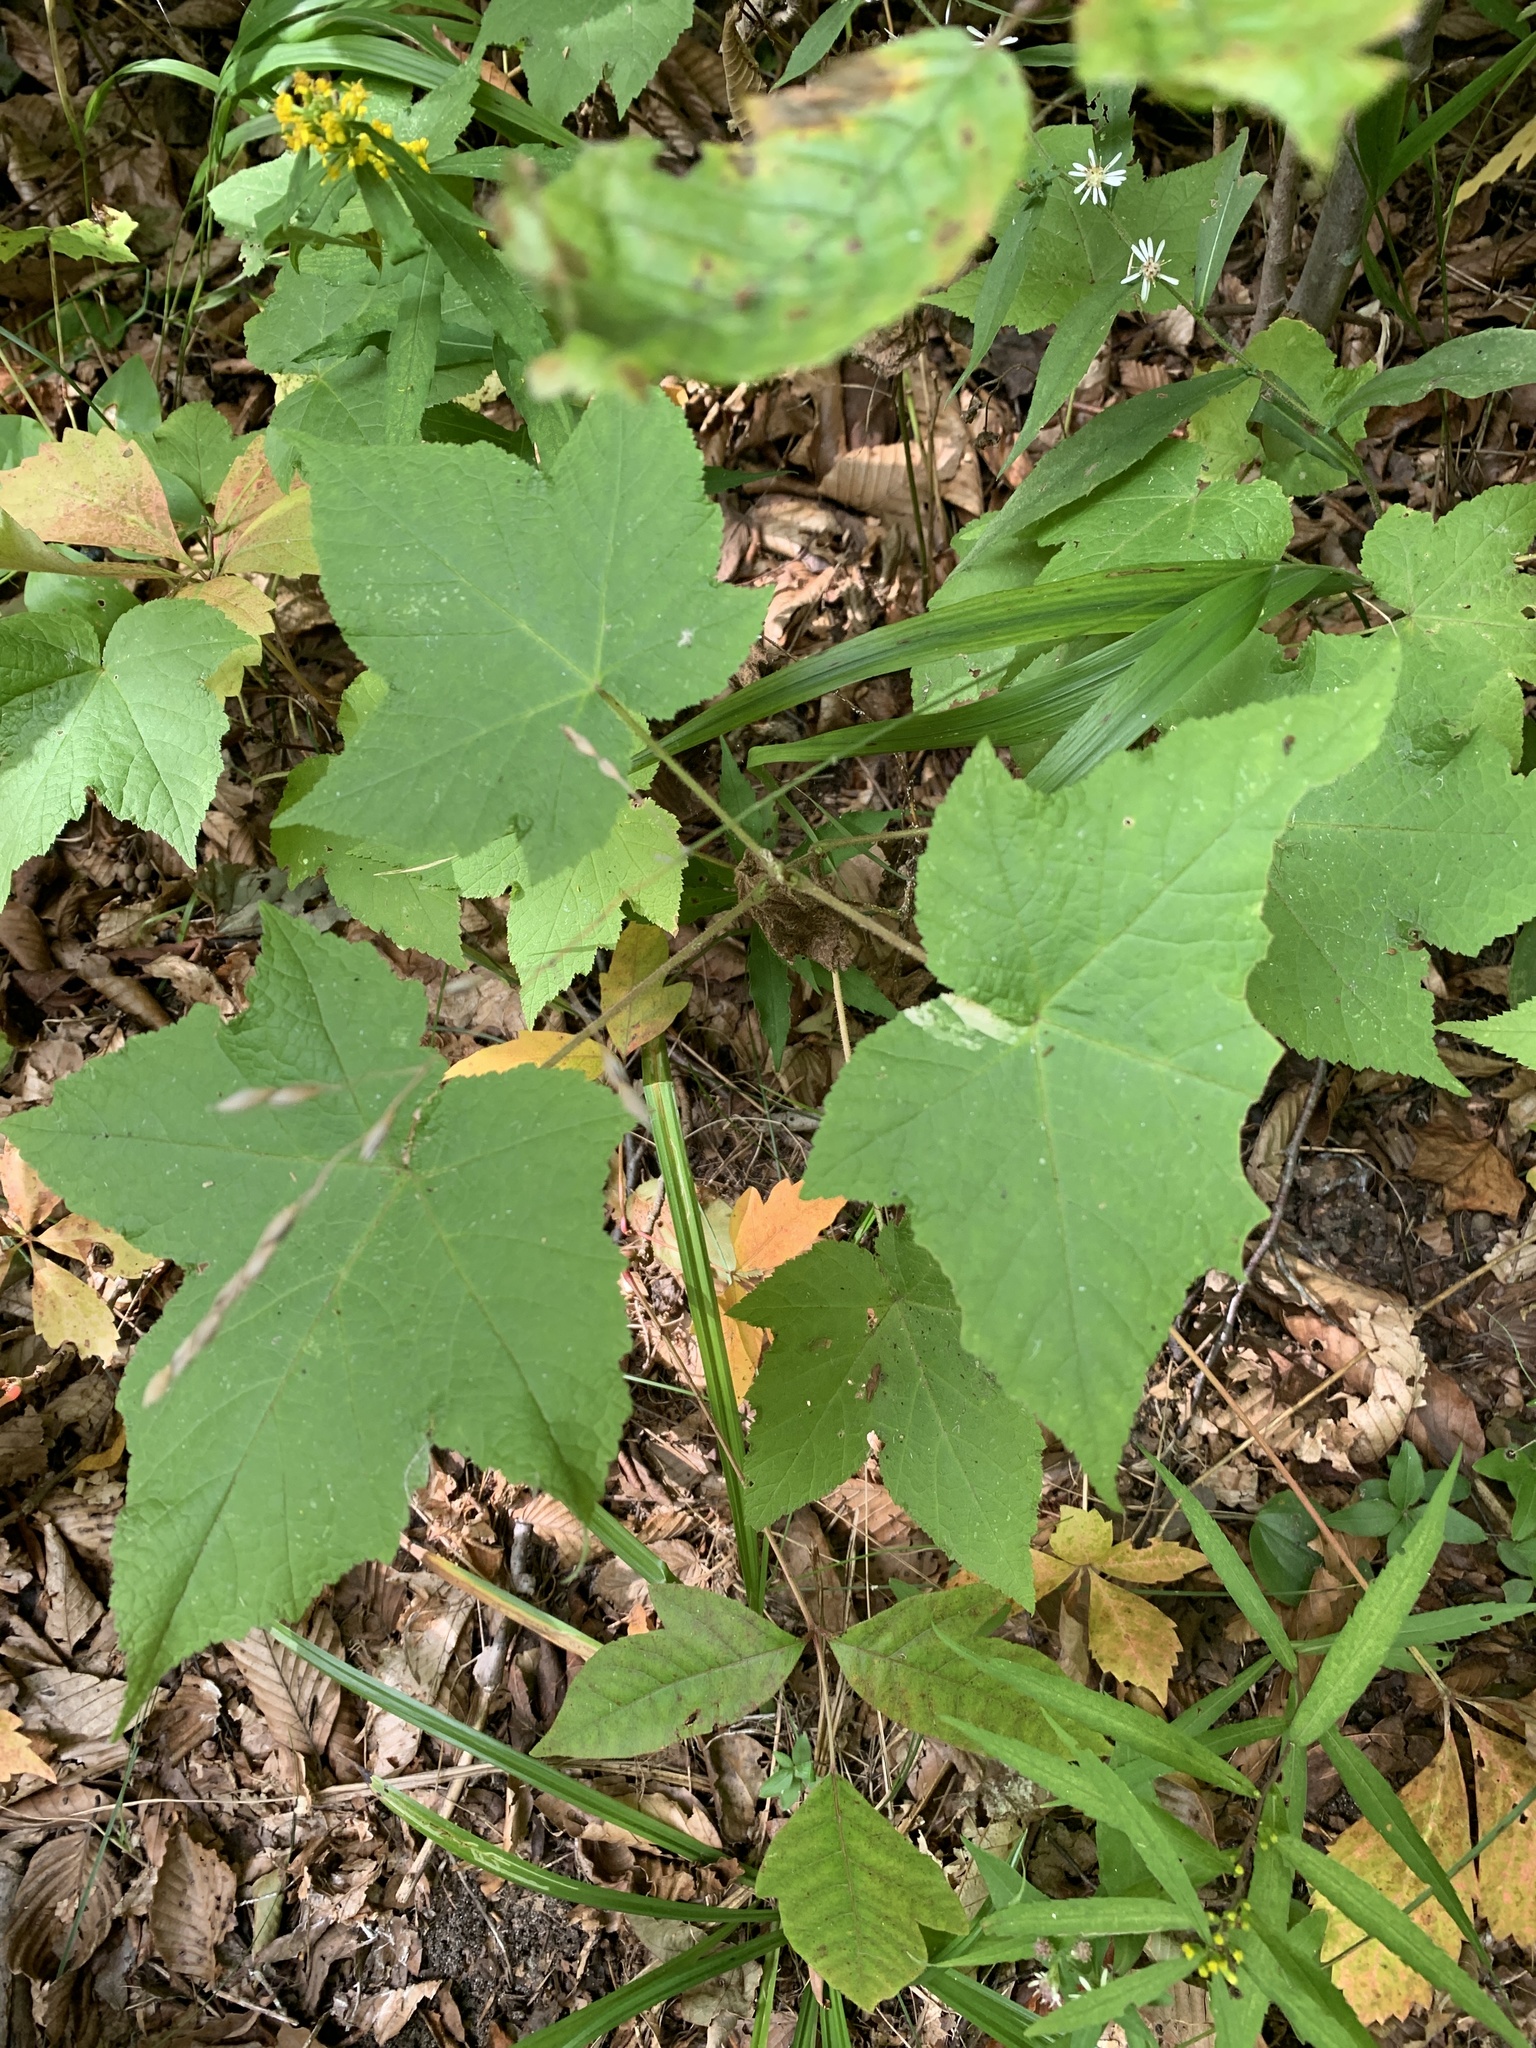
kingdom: Plantae
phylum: Tracheophyta
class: Magnoliopsida
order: Rosales
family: Rosaceae
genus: Rubus
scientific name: Rubus odoratus
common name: Purple-flowered raspberry
